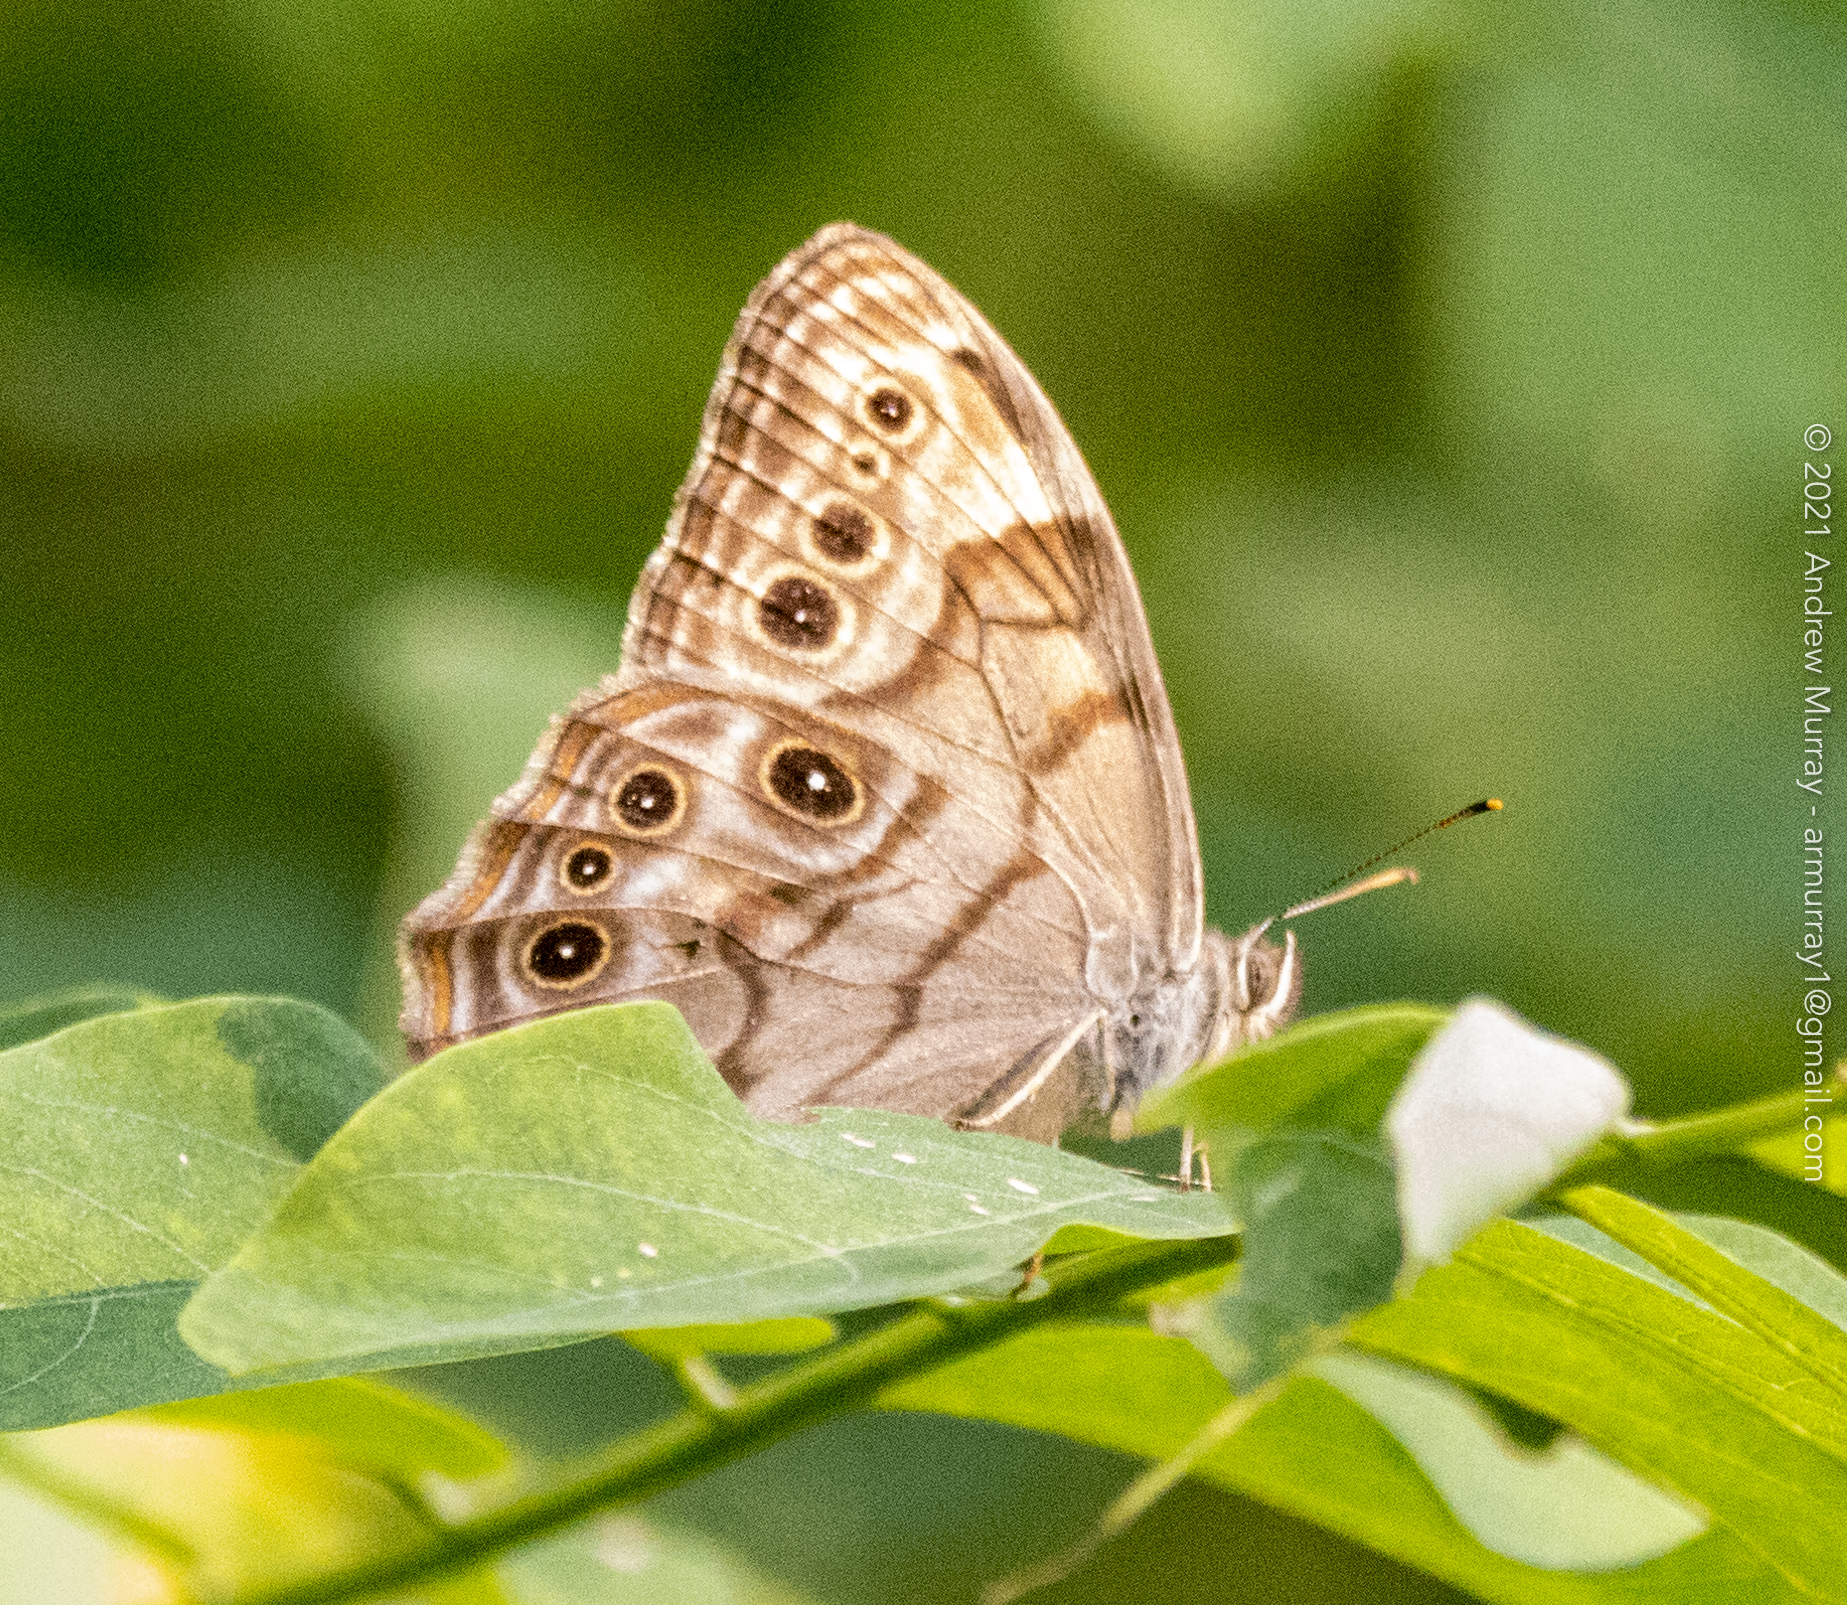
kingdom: Animalia
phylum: Arthropoda
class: Insecta
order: Lepidoptera
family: Nymphalidae
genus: Lethe
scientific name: Lethe anthedon
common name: Northern pearly-eye
